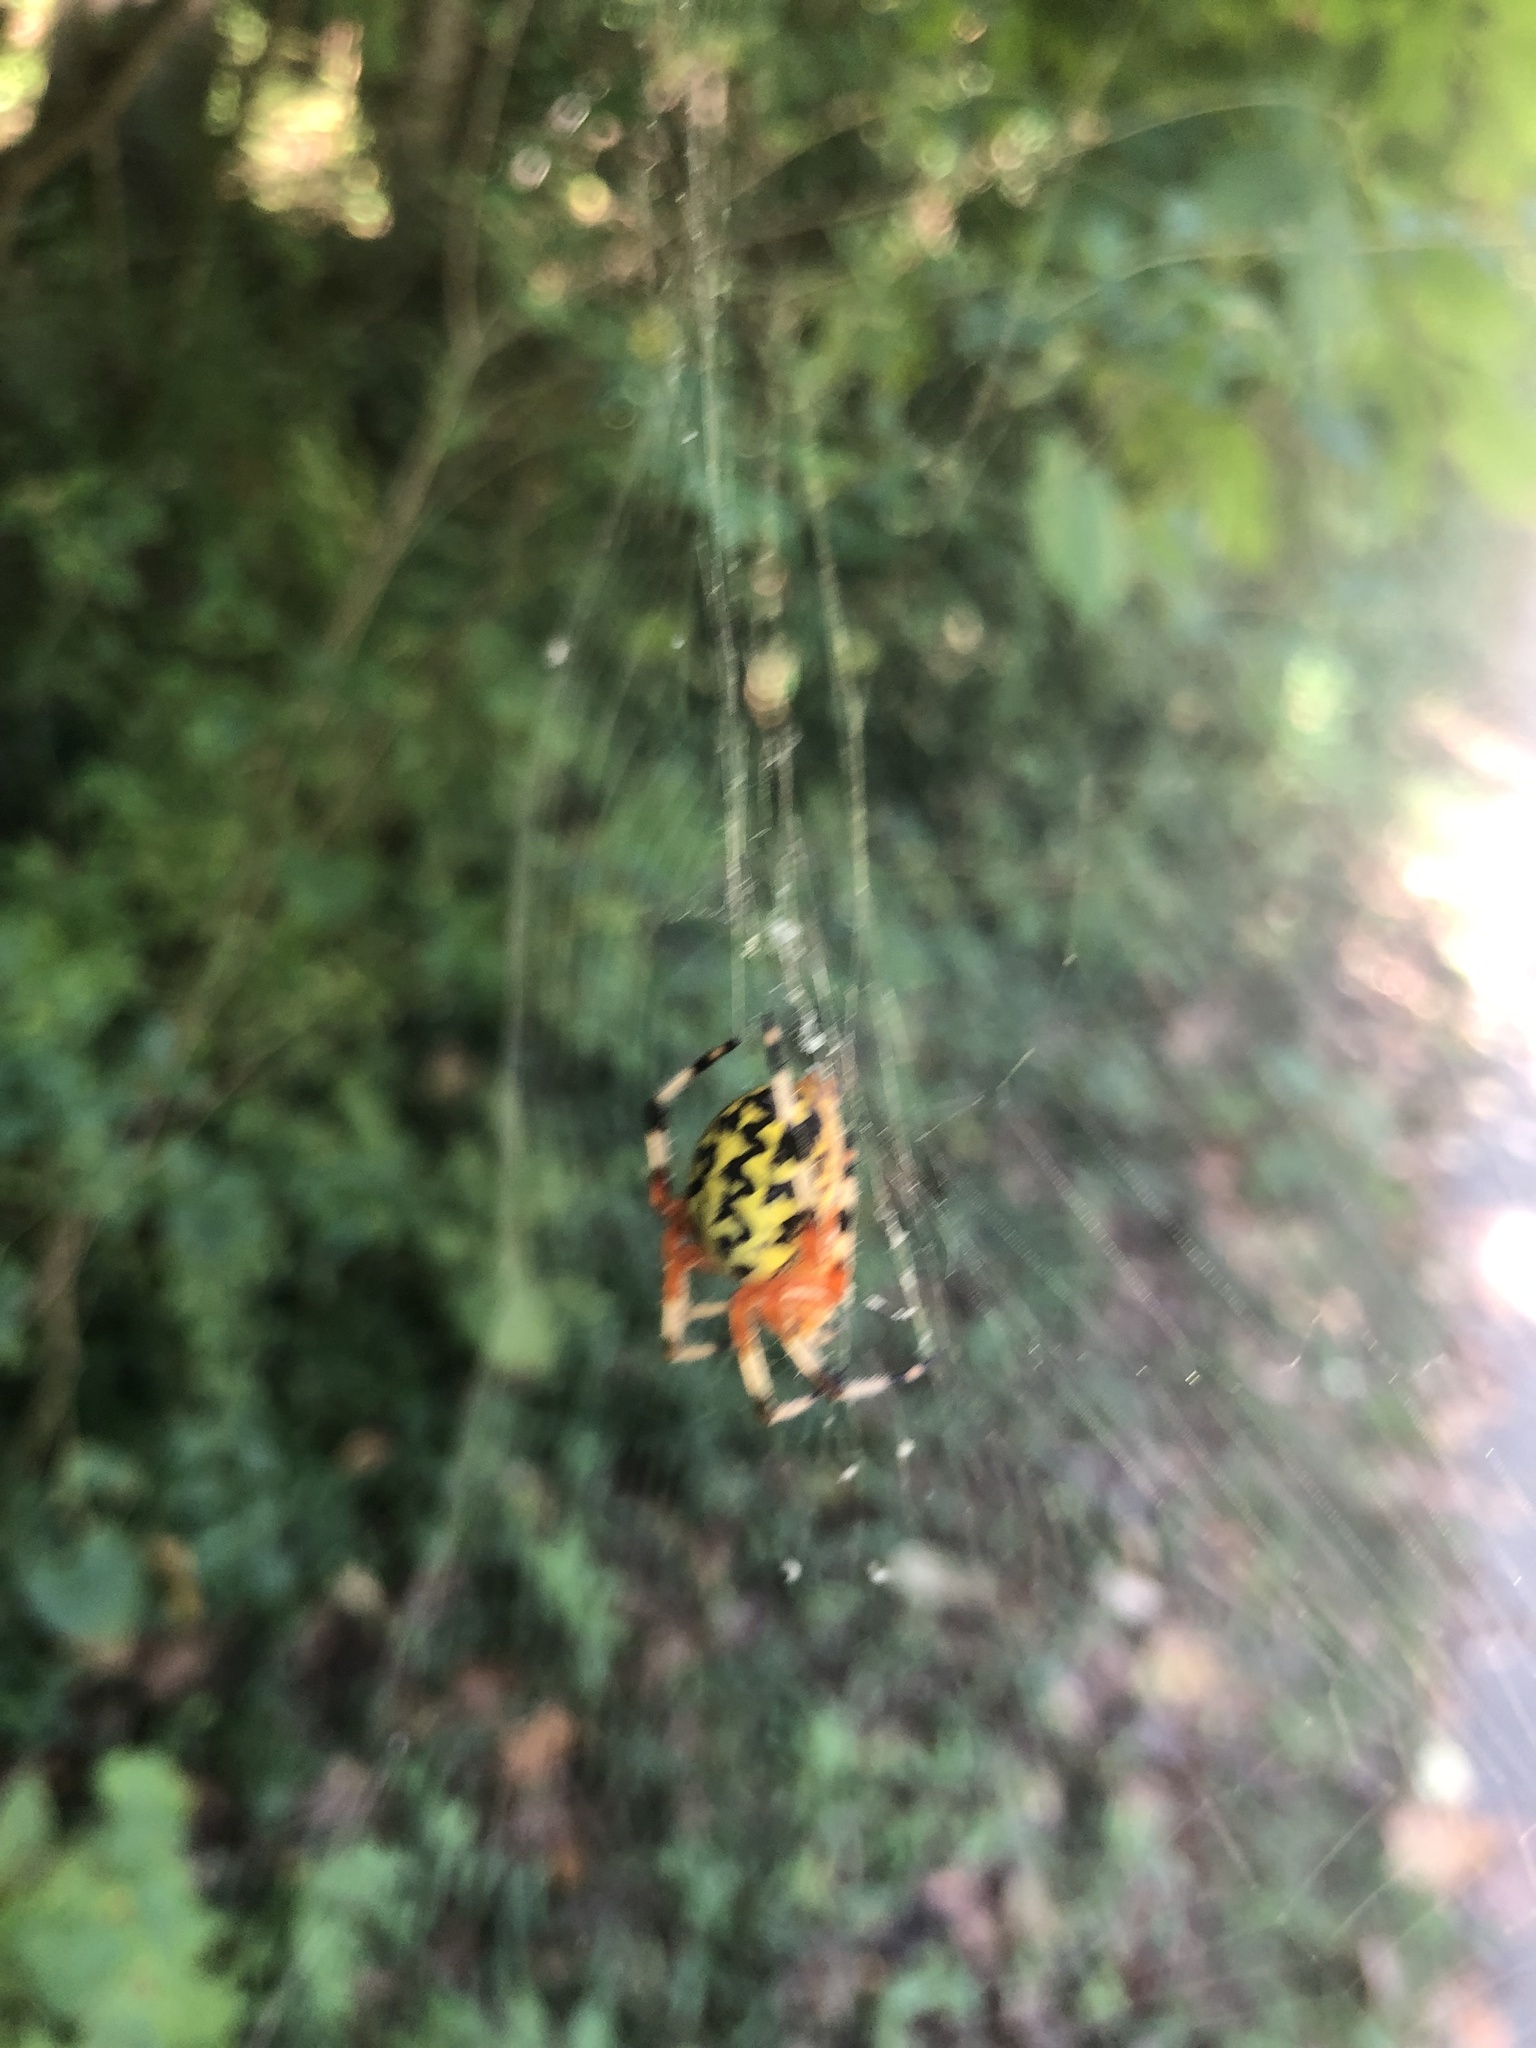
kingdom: Animalia
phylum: Arthropoda
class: Arachnida
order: Araneae
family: Araneidae
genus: Araneus
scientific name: Araneus marmoreus
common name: Marbled orbweaver
